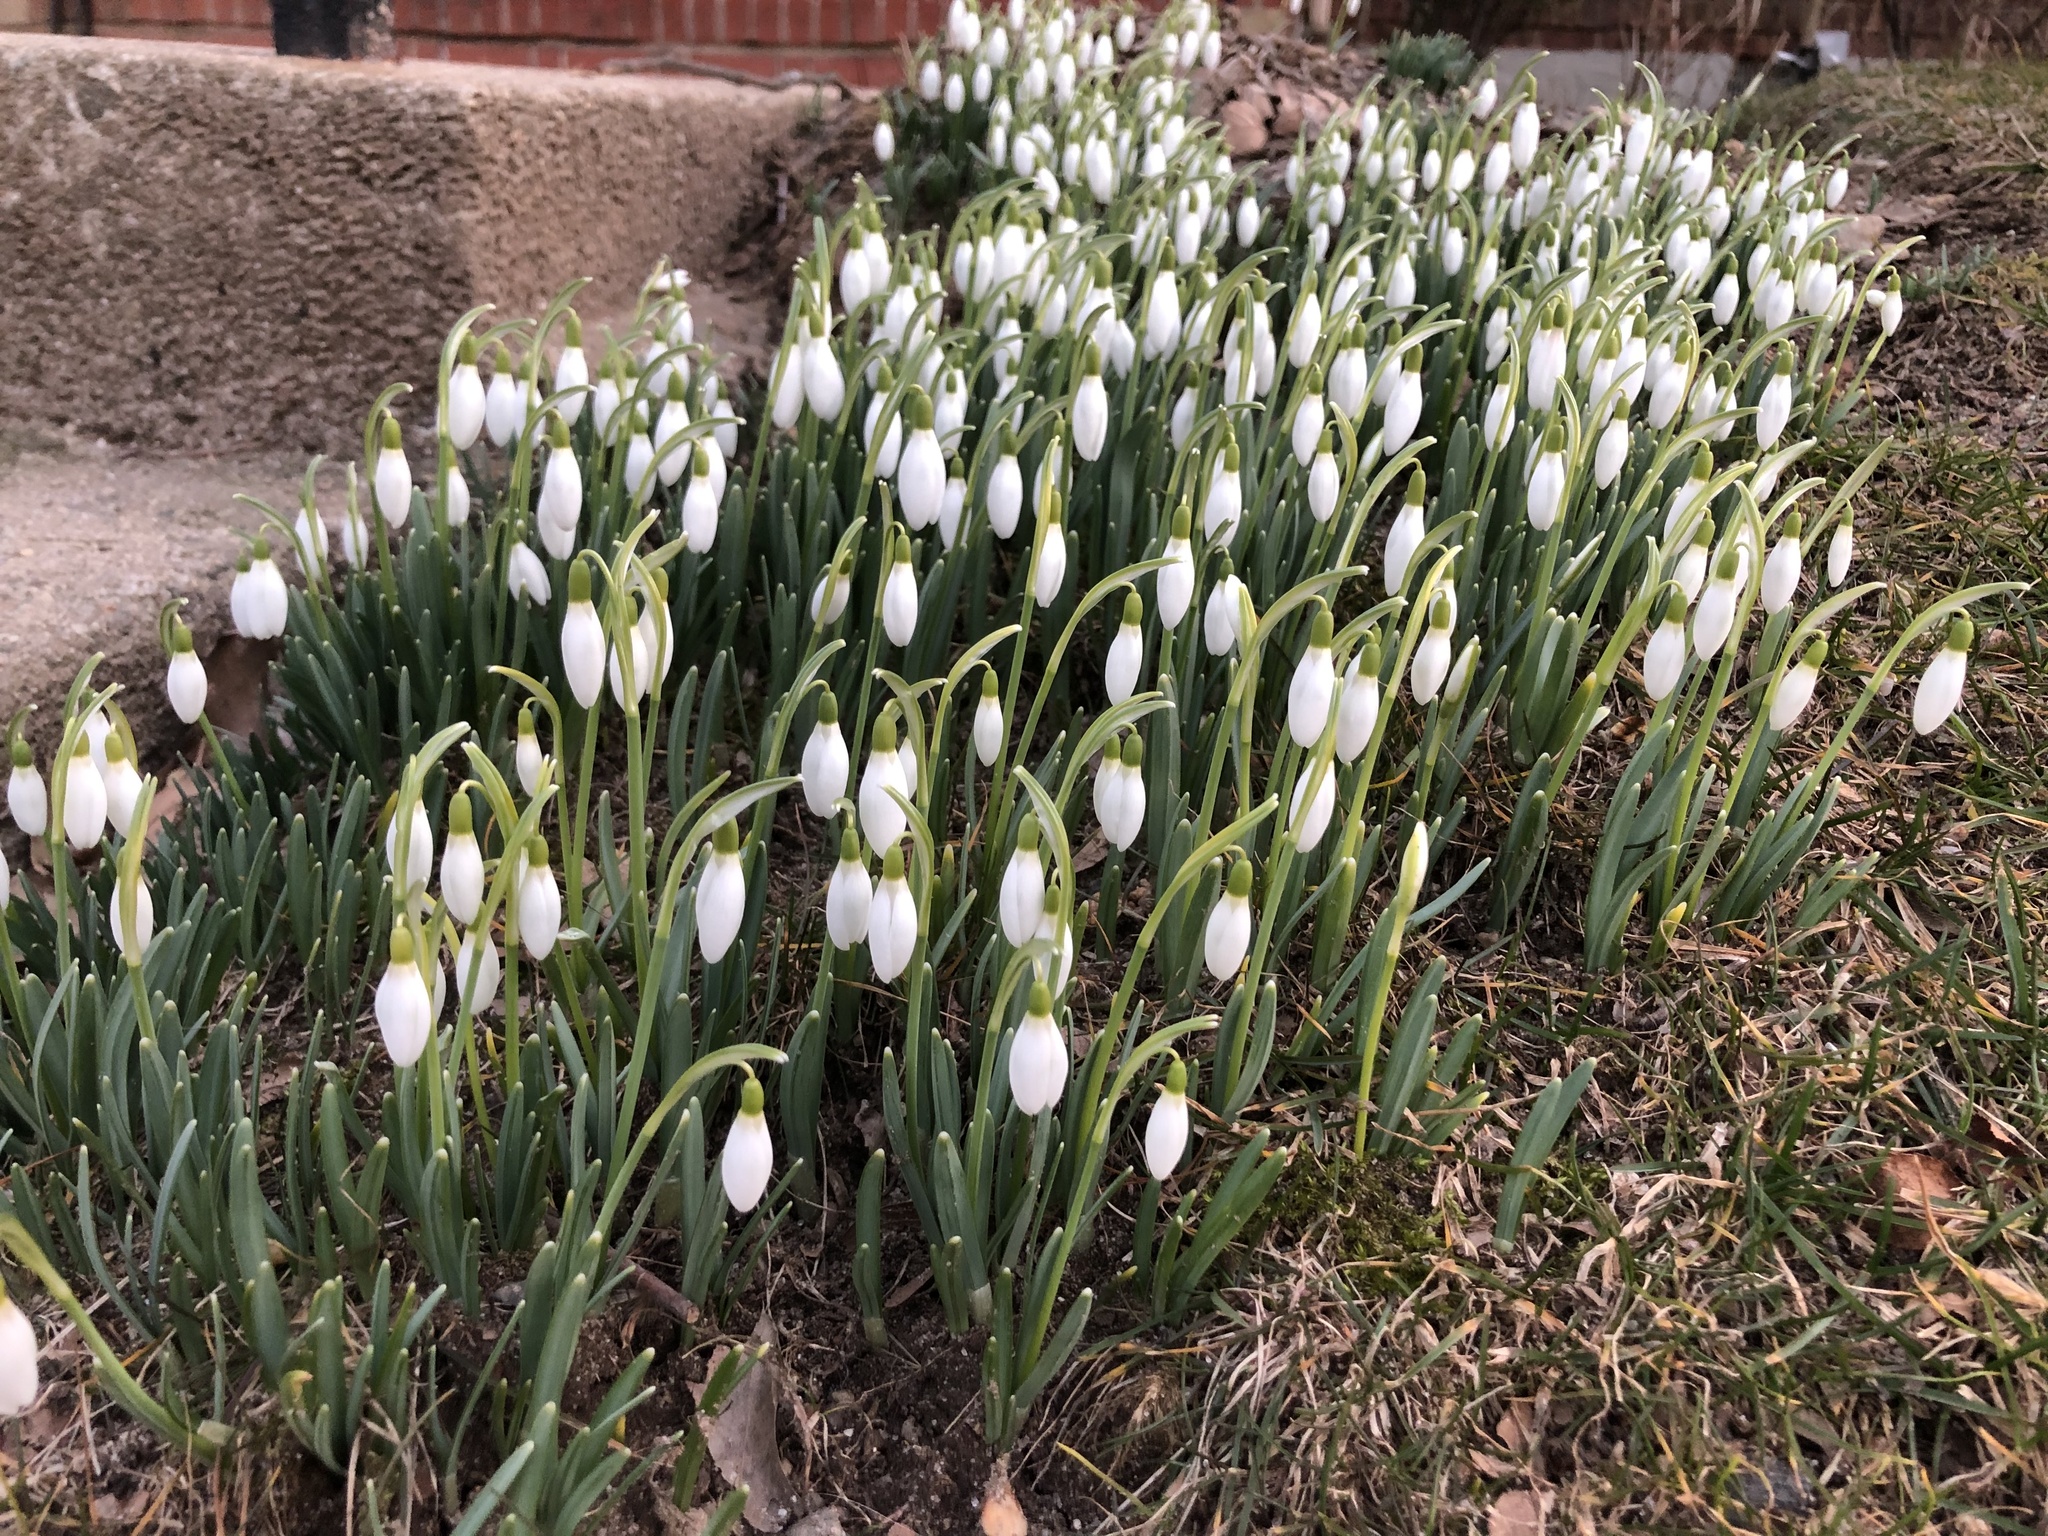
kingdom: Plantae
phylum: Tracheophyta
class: Liliopsida
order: Asparagales
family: Amaryllidaceae
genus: Galanthus
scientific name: Galanthus nivalis
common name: Snowdrop
